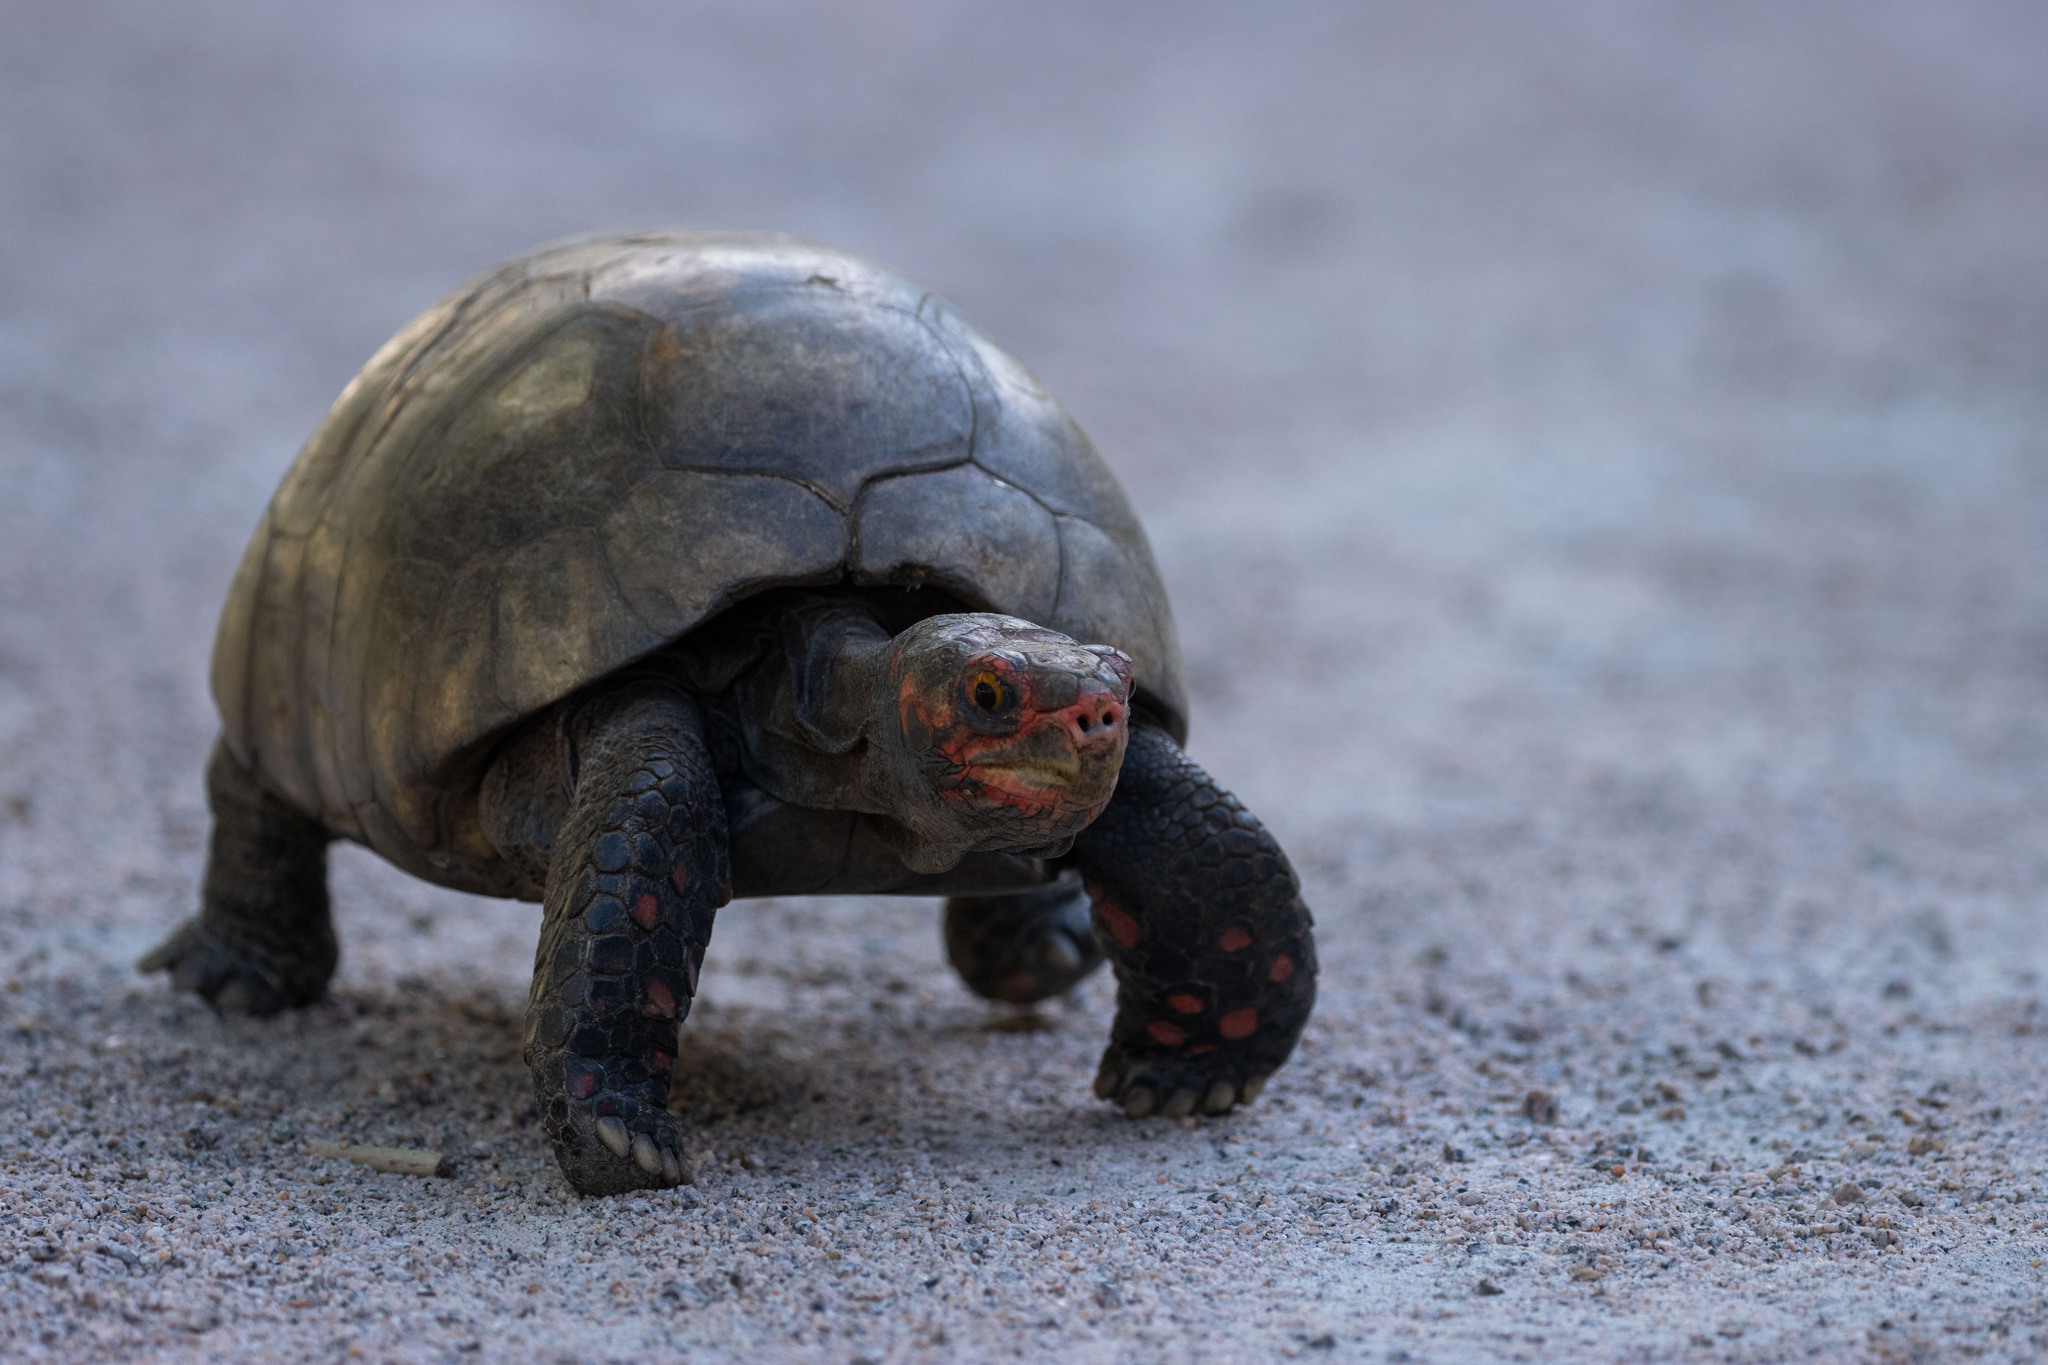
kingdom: Animalia
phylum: Chordata
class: Testudines
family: Testudinidae
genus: Chelonoidis
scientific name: Chelonoidis carbonarius
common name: Red-footed tortoise
